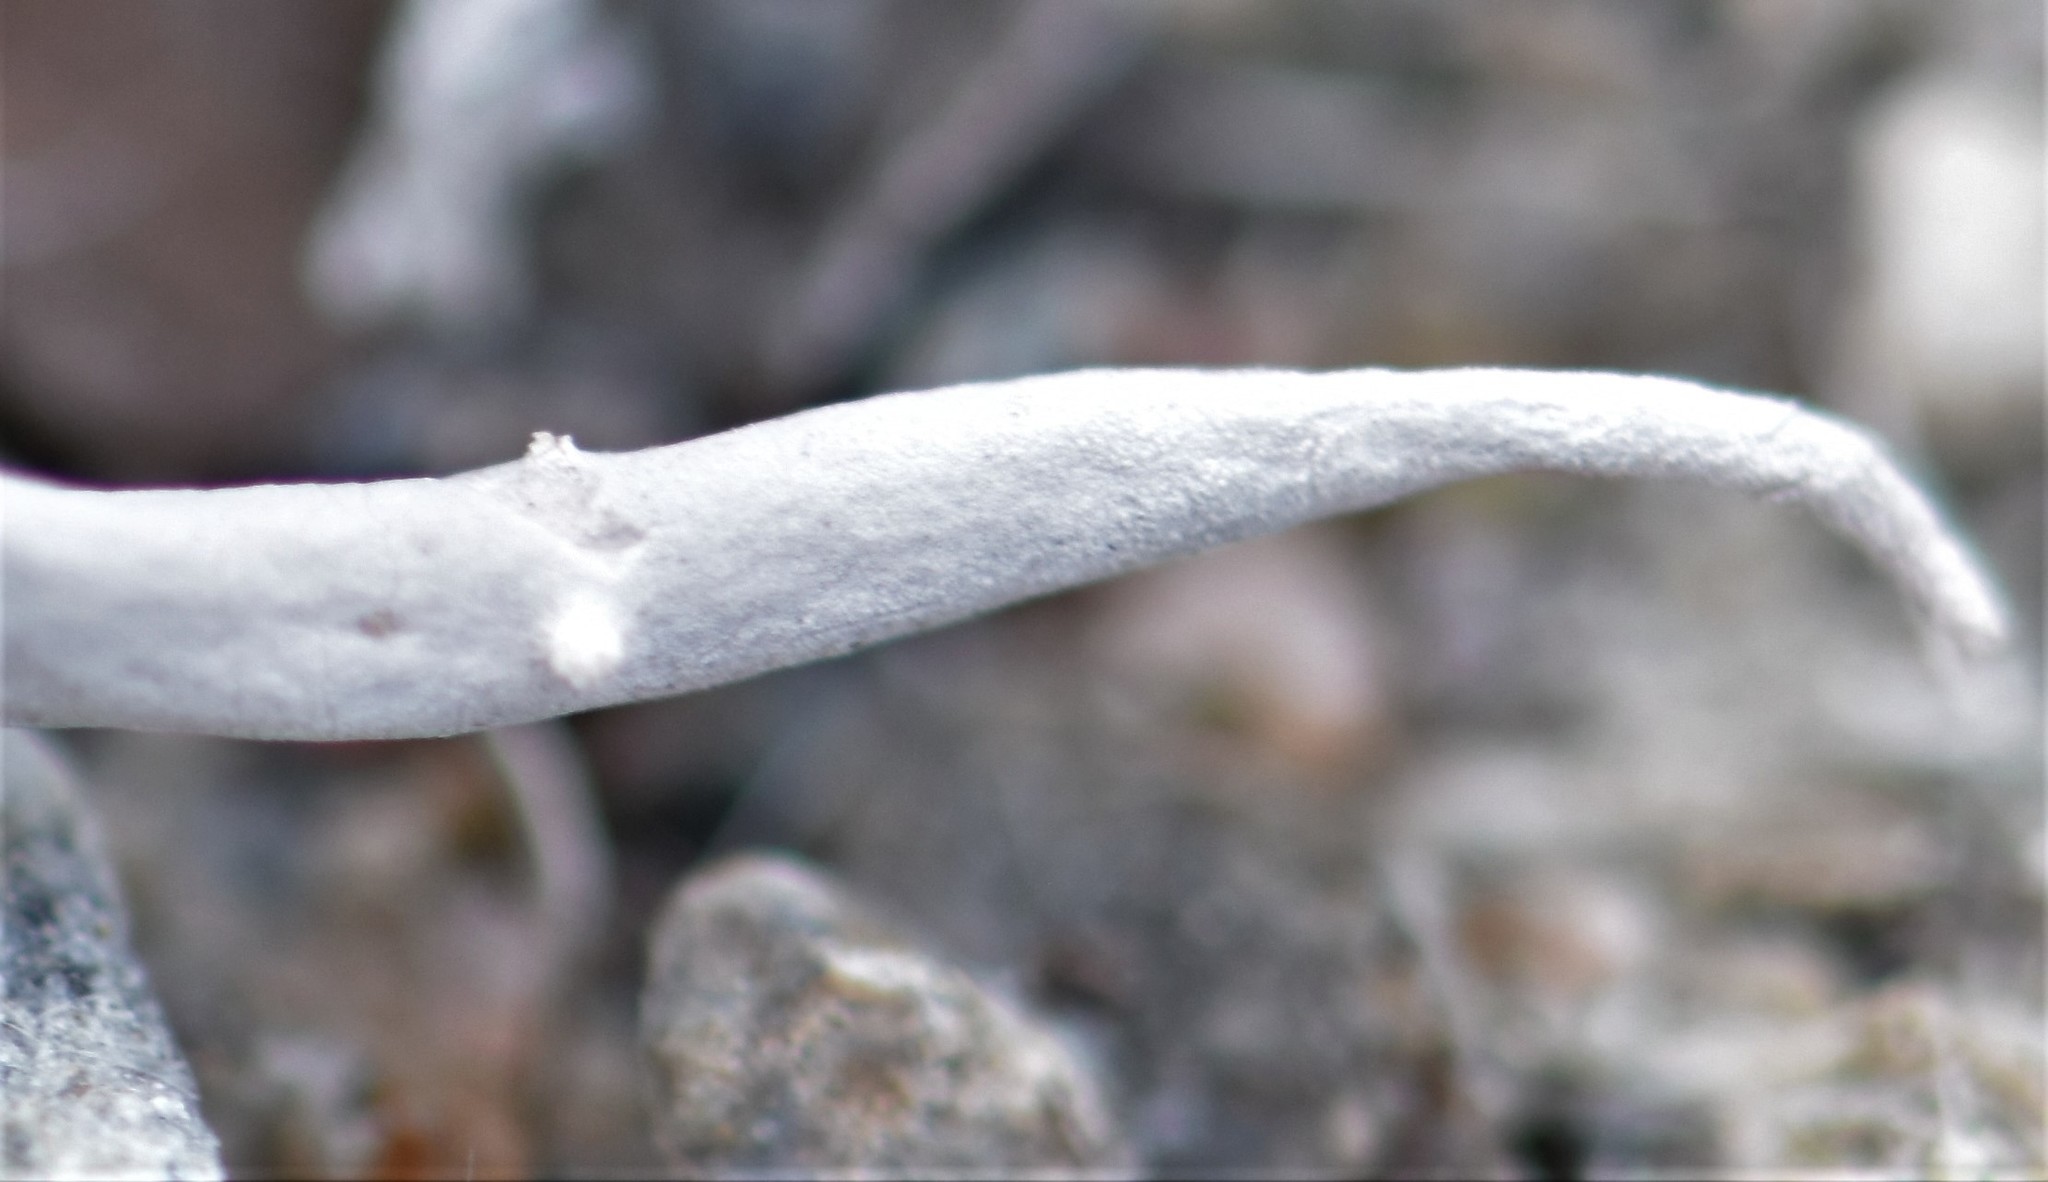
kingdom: Fungi
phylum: Ascomycota
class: Lecanoromycetes
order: Pertusariales
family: Icmadophilaceae
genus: Thamnolia
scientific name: Thamnolia vermicularis
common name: Whiteworm lichen
